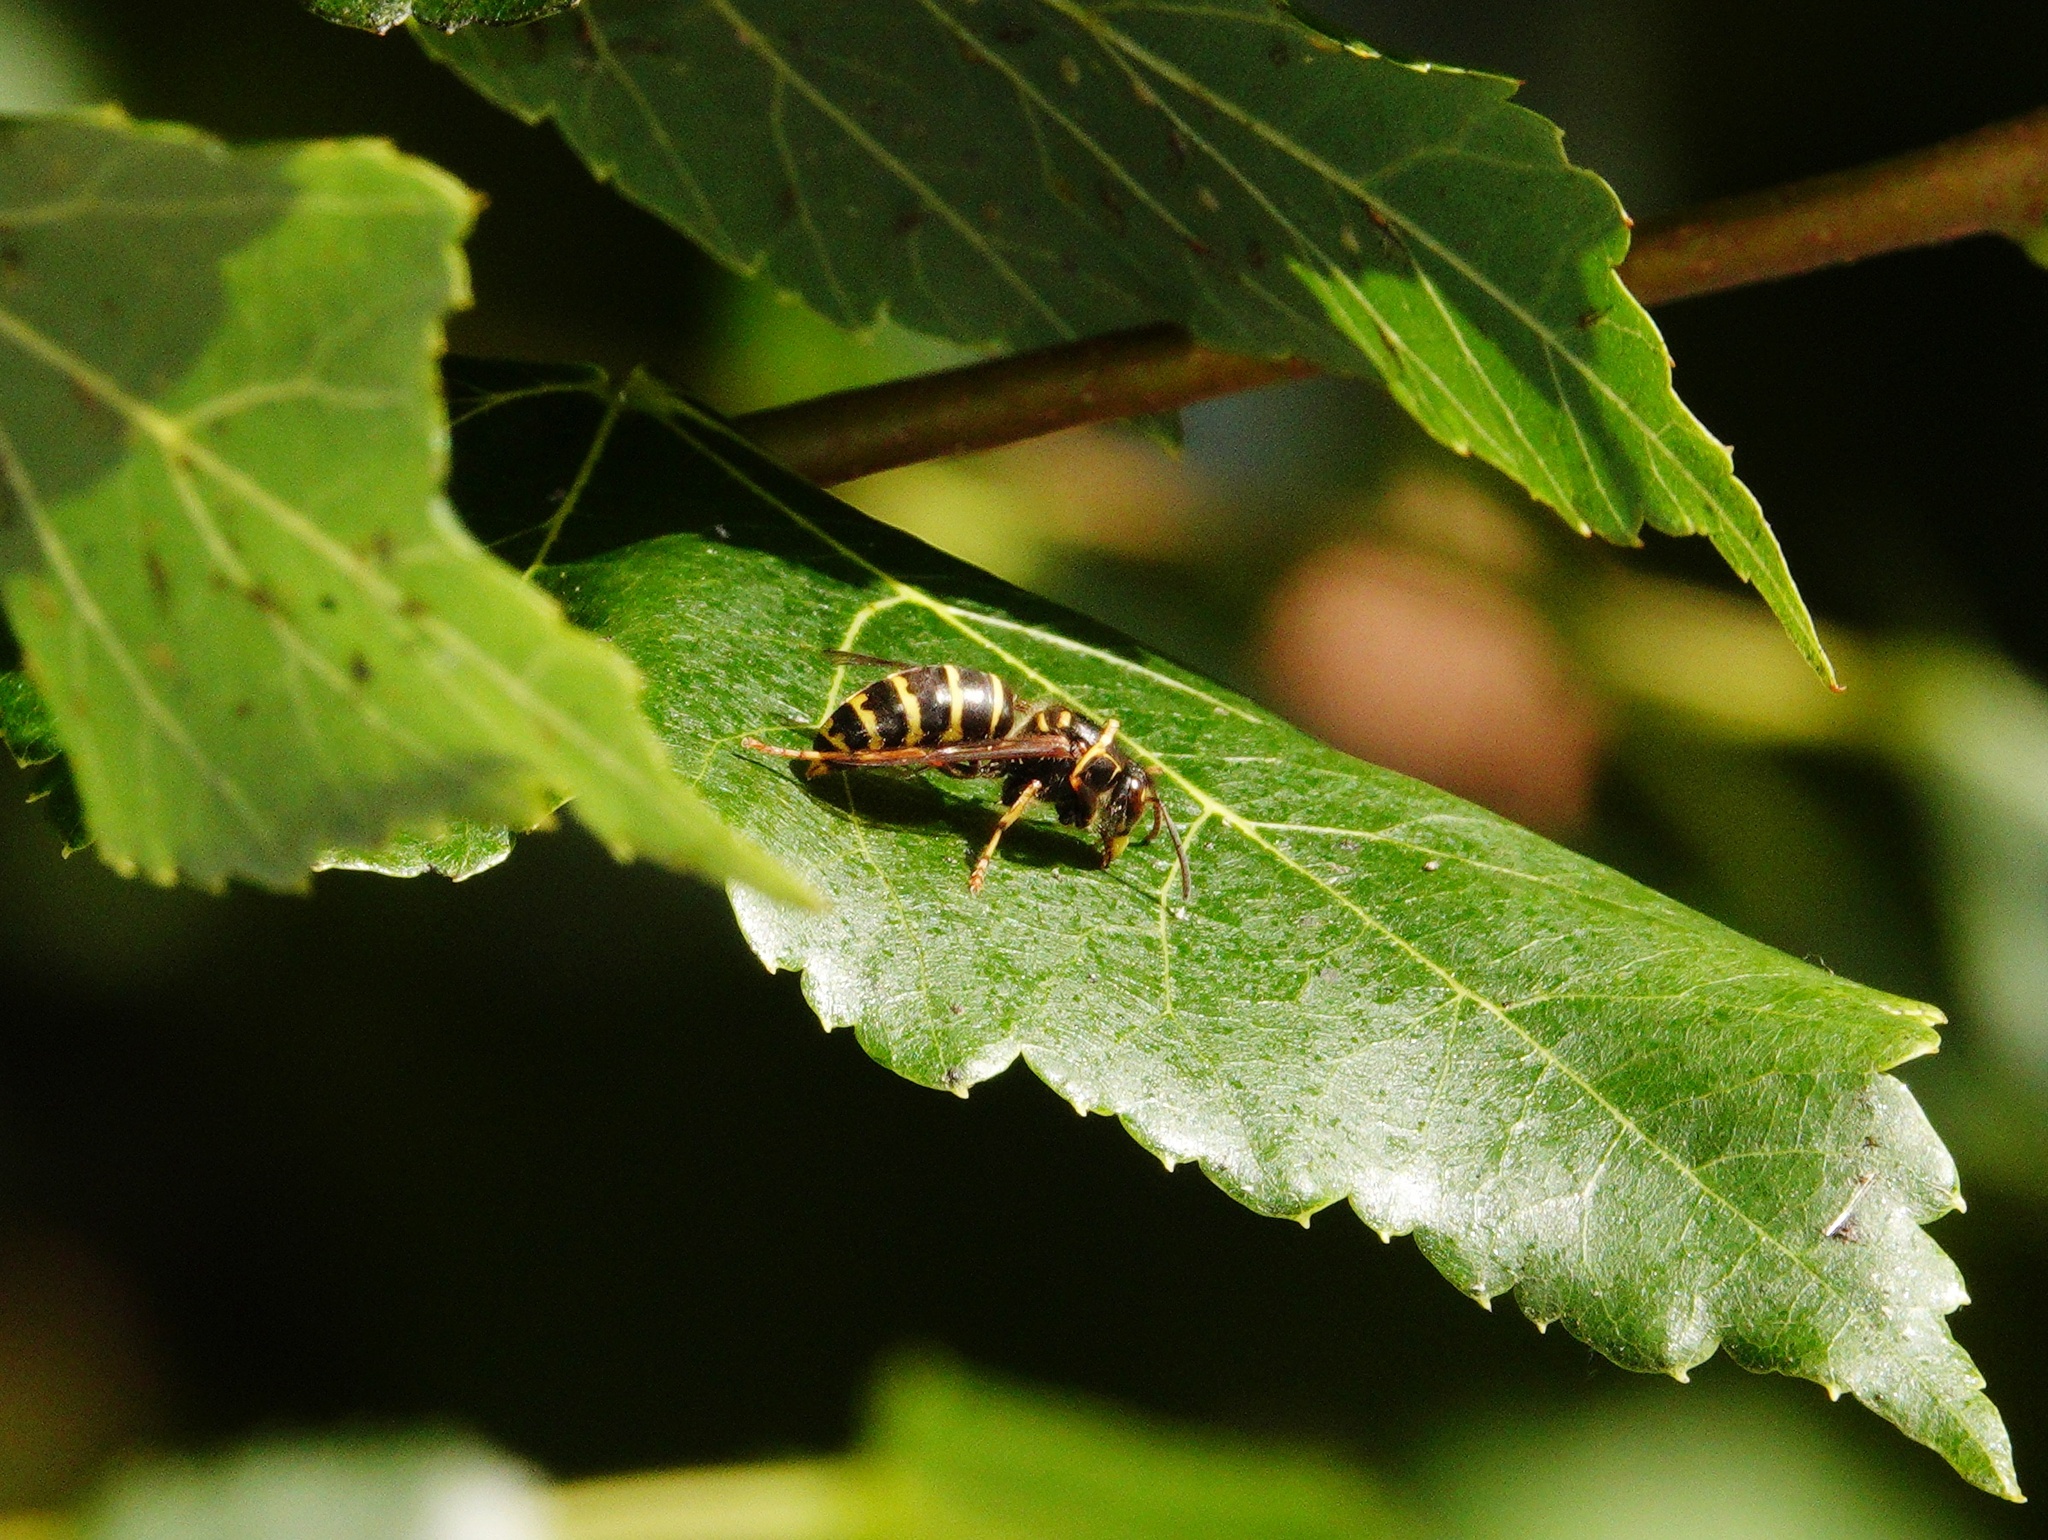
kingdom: Animalia
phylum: Arthropoda
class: Insecta
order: Hymenoptera
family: Vespidae
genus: Dolichovespula
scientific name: Dolichovespula media
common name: Median wasp
